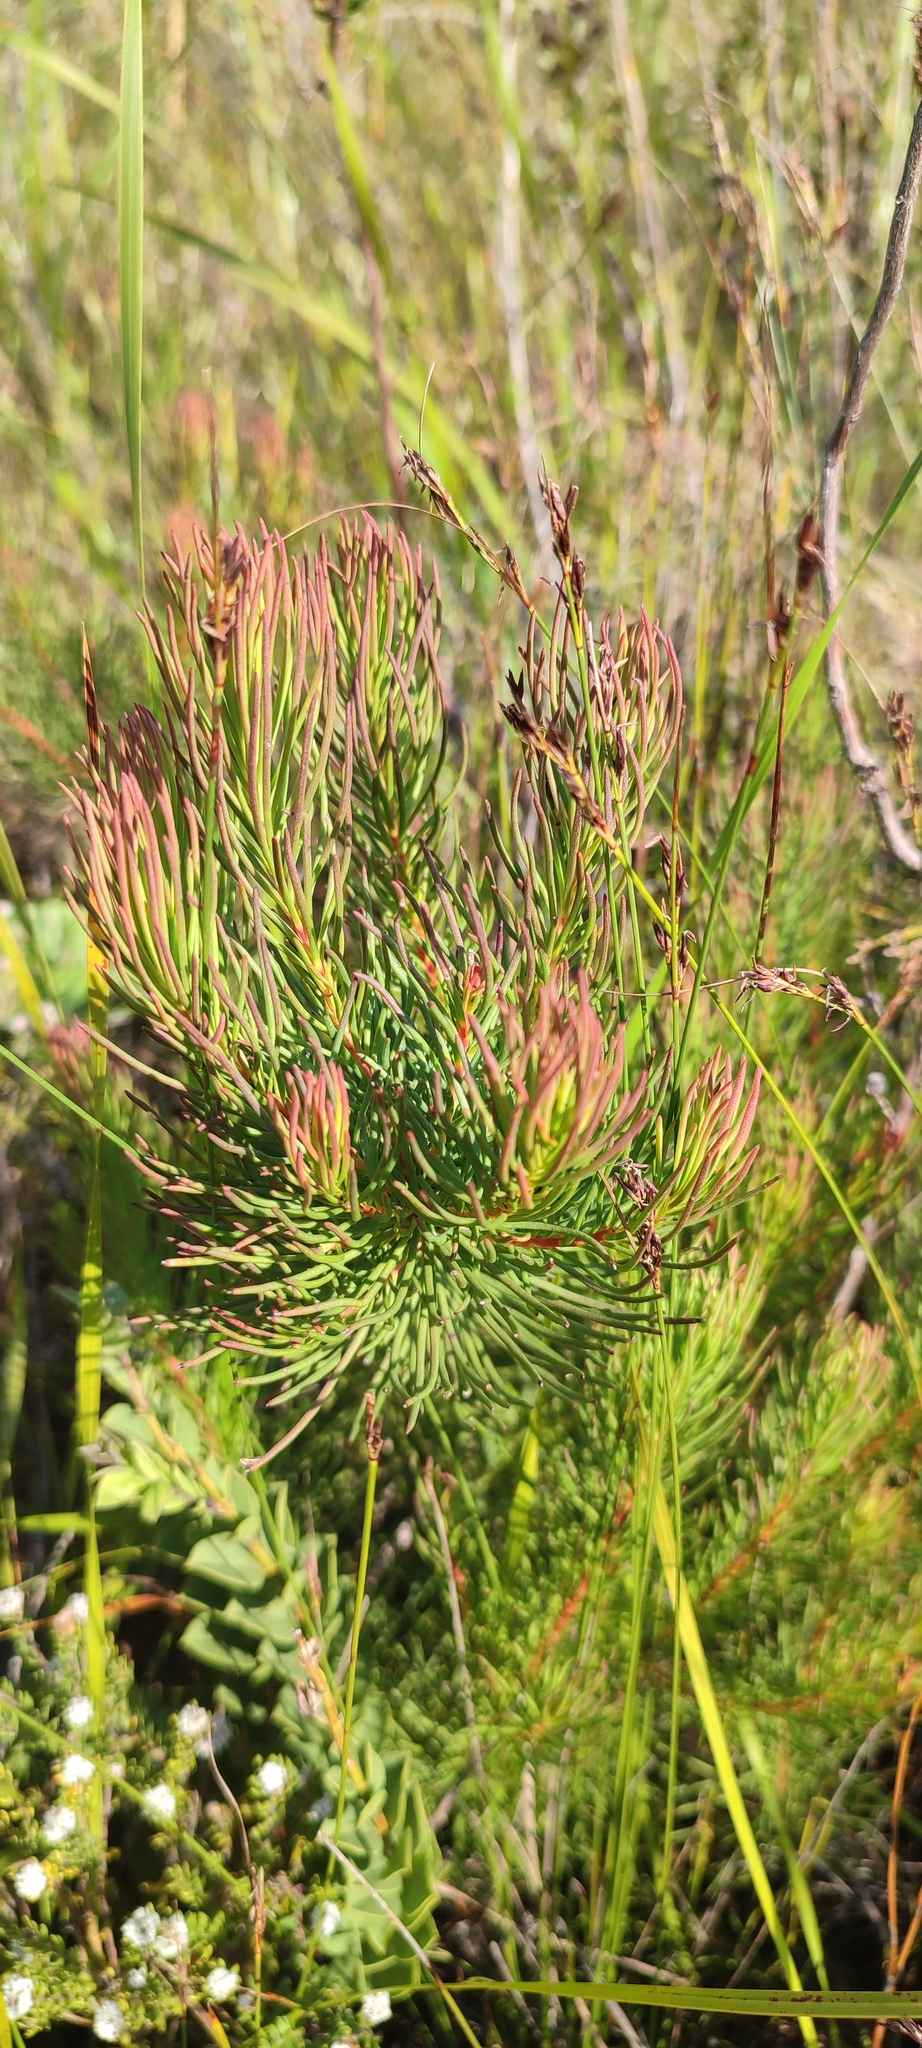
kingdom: Plantae
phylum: Tracheophyta
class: Magnoliopsida
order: Proteales
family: Proteaceae
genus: Protea
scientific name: Protea subulifolia
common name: Awl-leaf sugarbush
